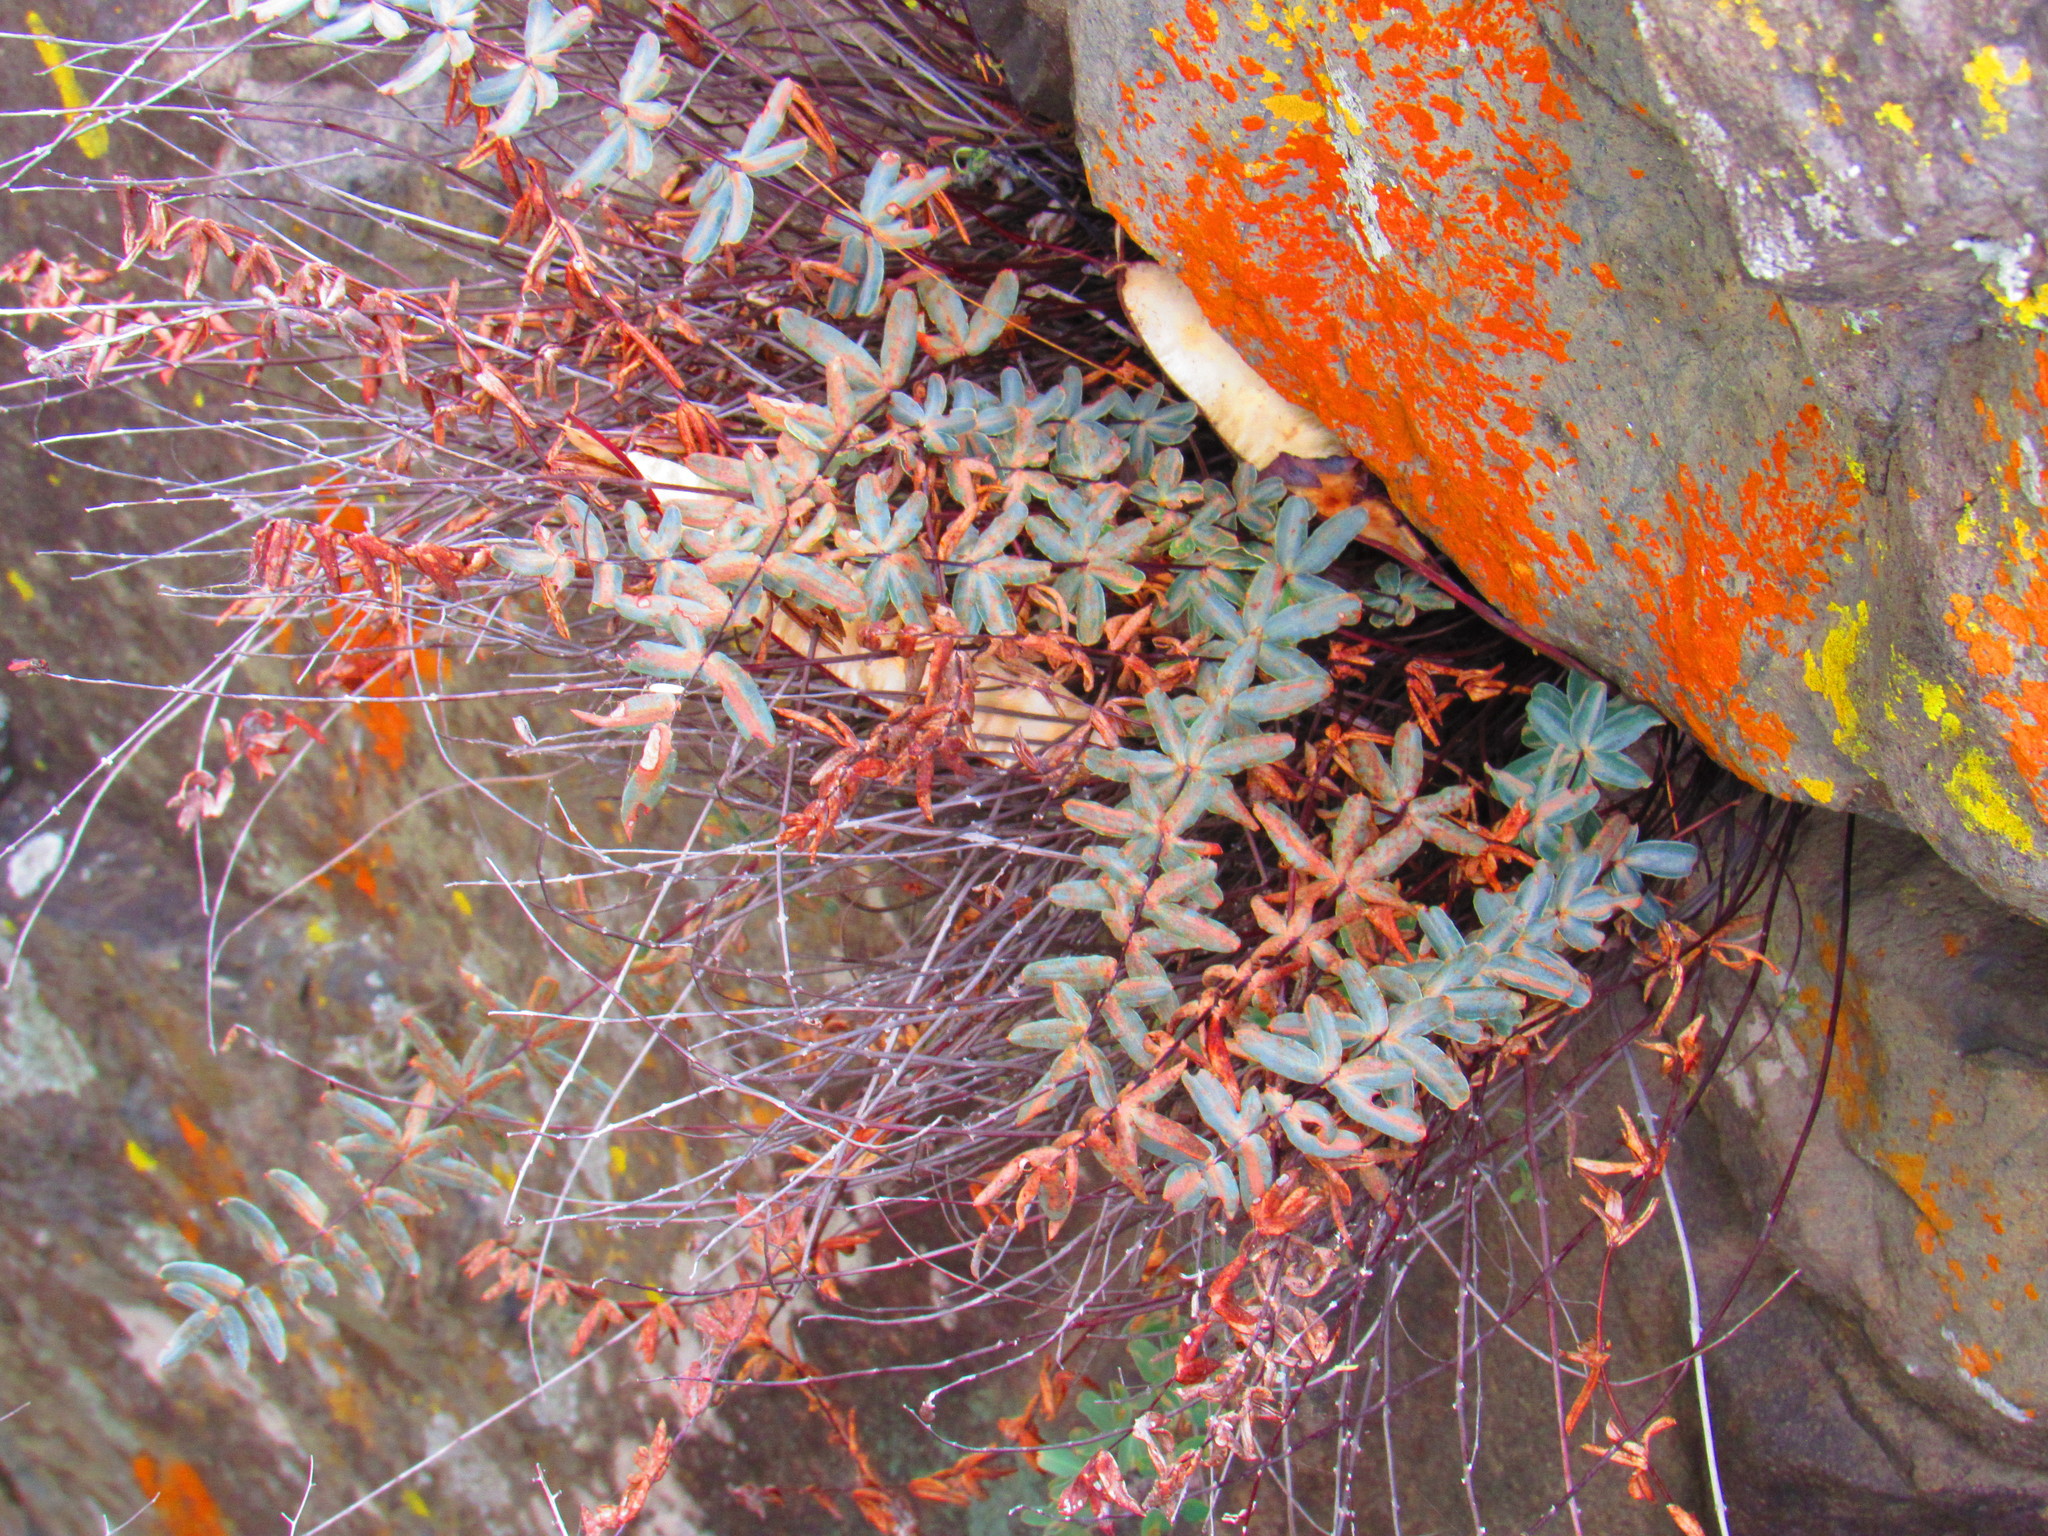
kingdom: Plantae
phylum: Tracheophyta
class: Polypodiopsida
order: Polypodiales
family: Pteridaceae
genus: Pellaea
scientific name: Pellaea ternifolia
